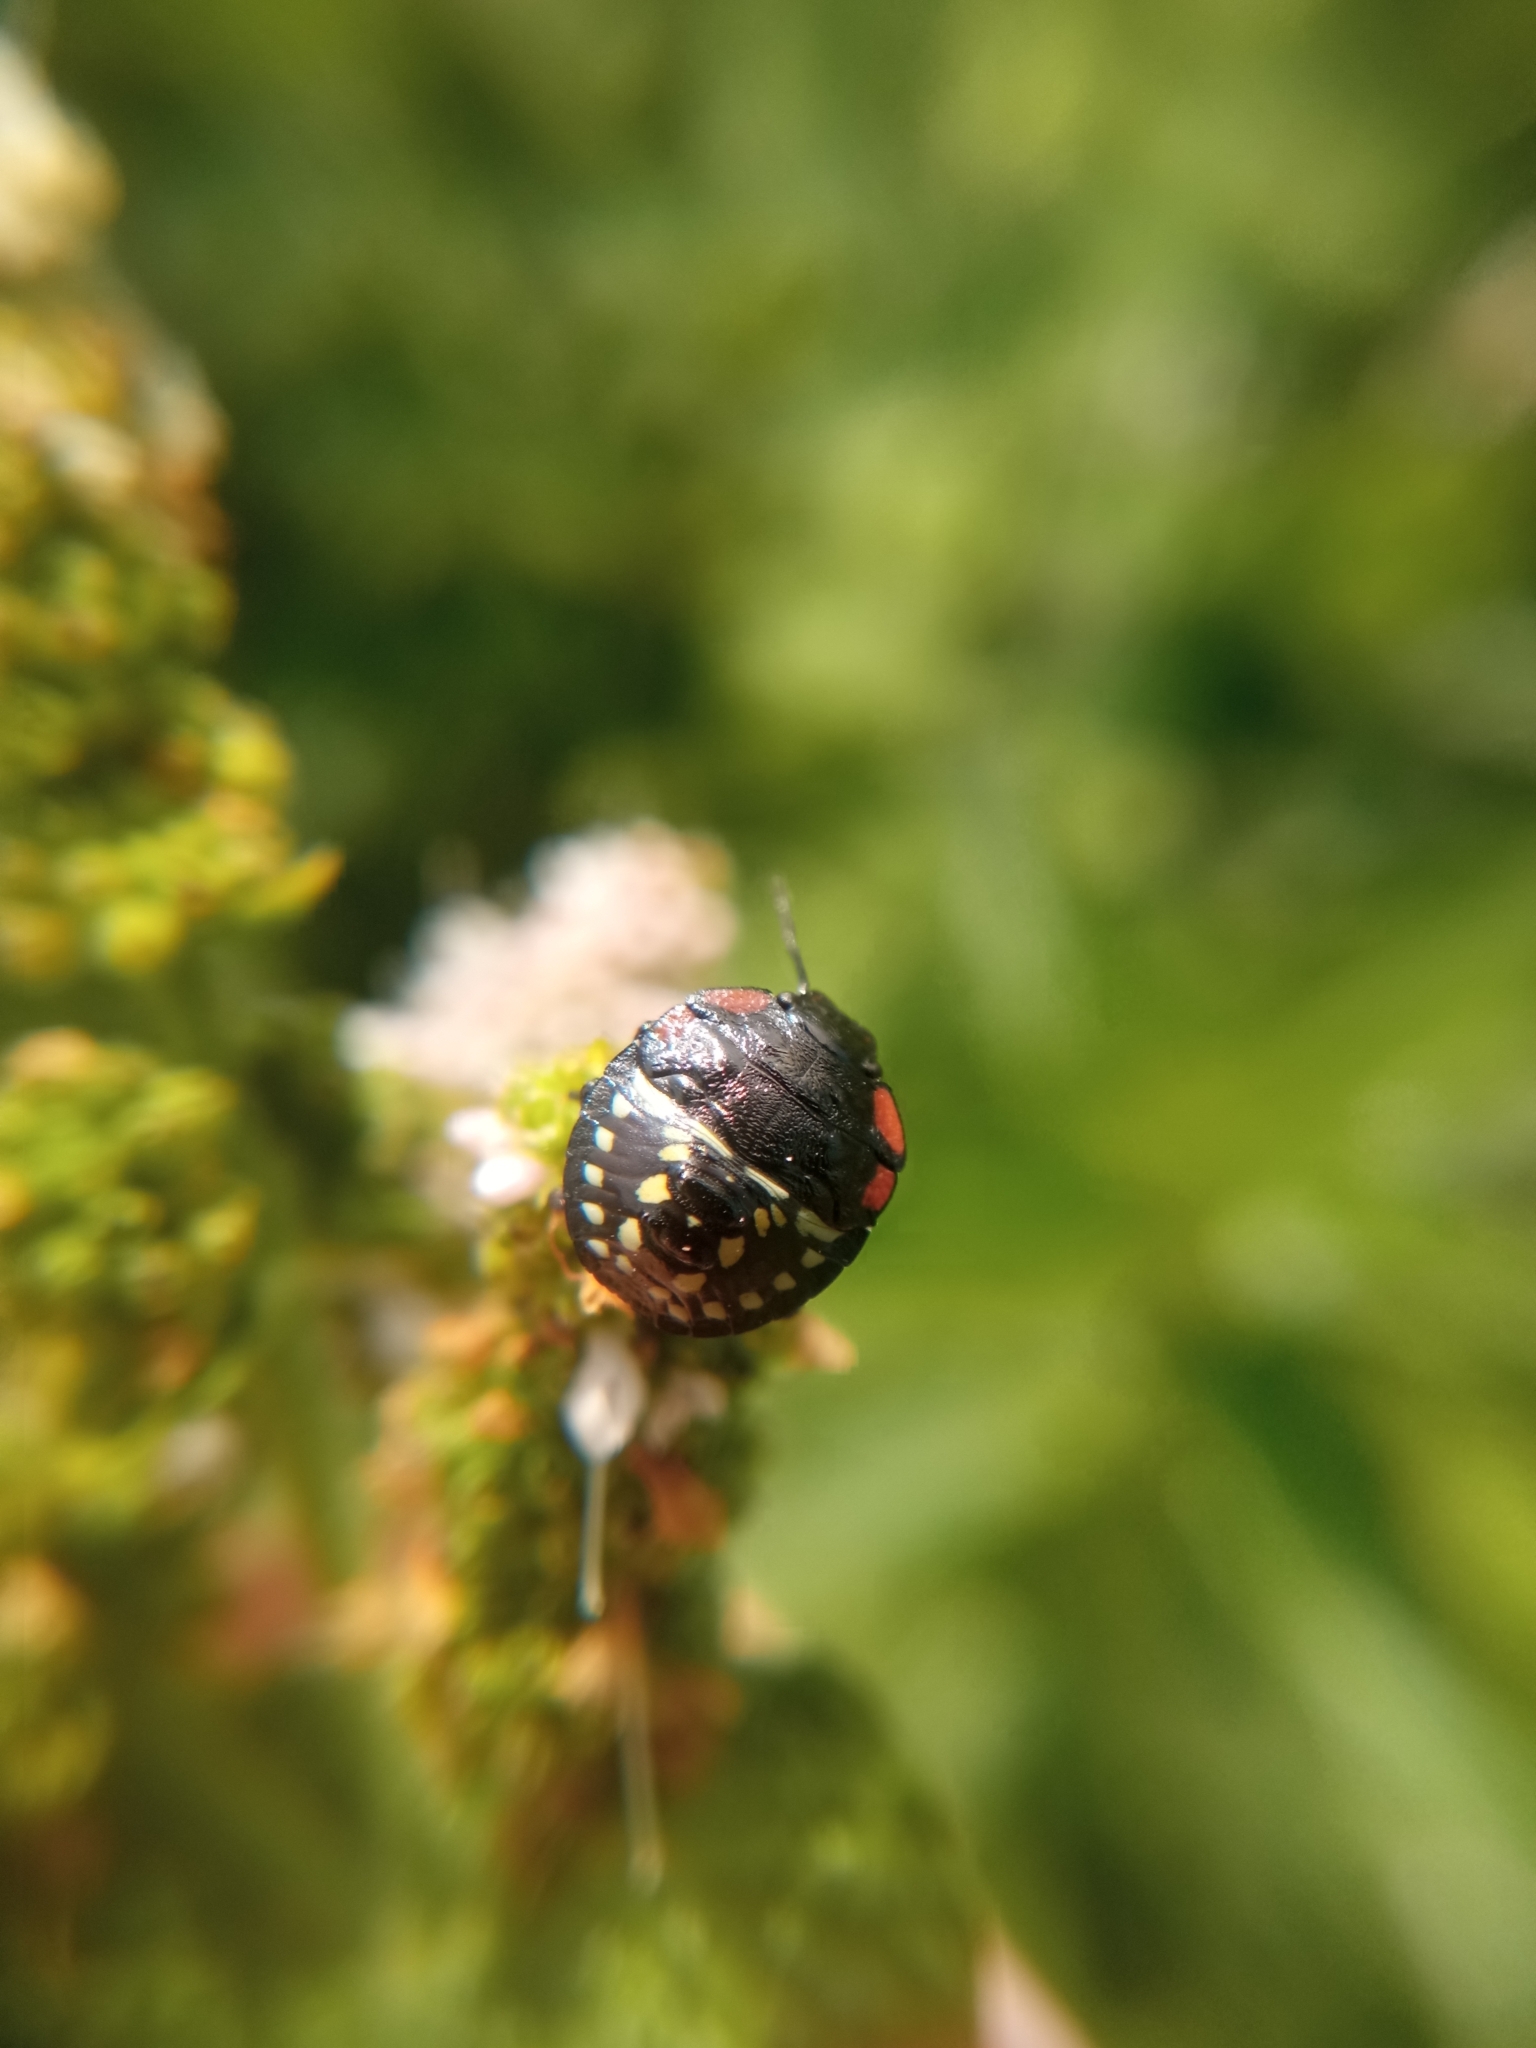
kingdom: Animalia
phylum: Arthropoda
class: Insecta
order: Hemiptera
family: Pentatomidae
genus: Nezara
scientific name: Nezara viridula
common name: Southern green stink bug
